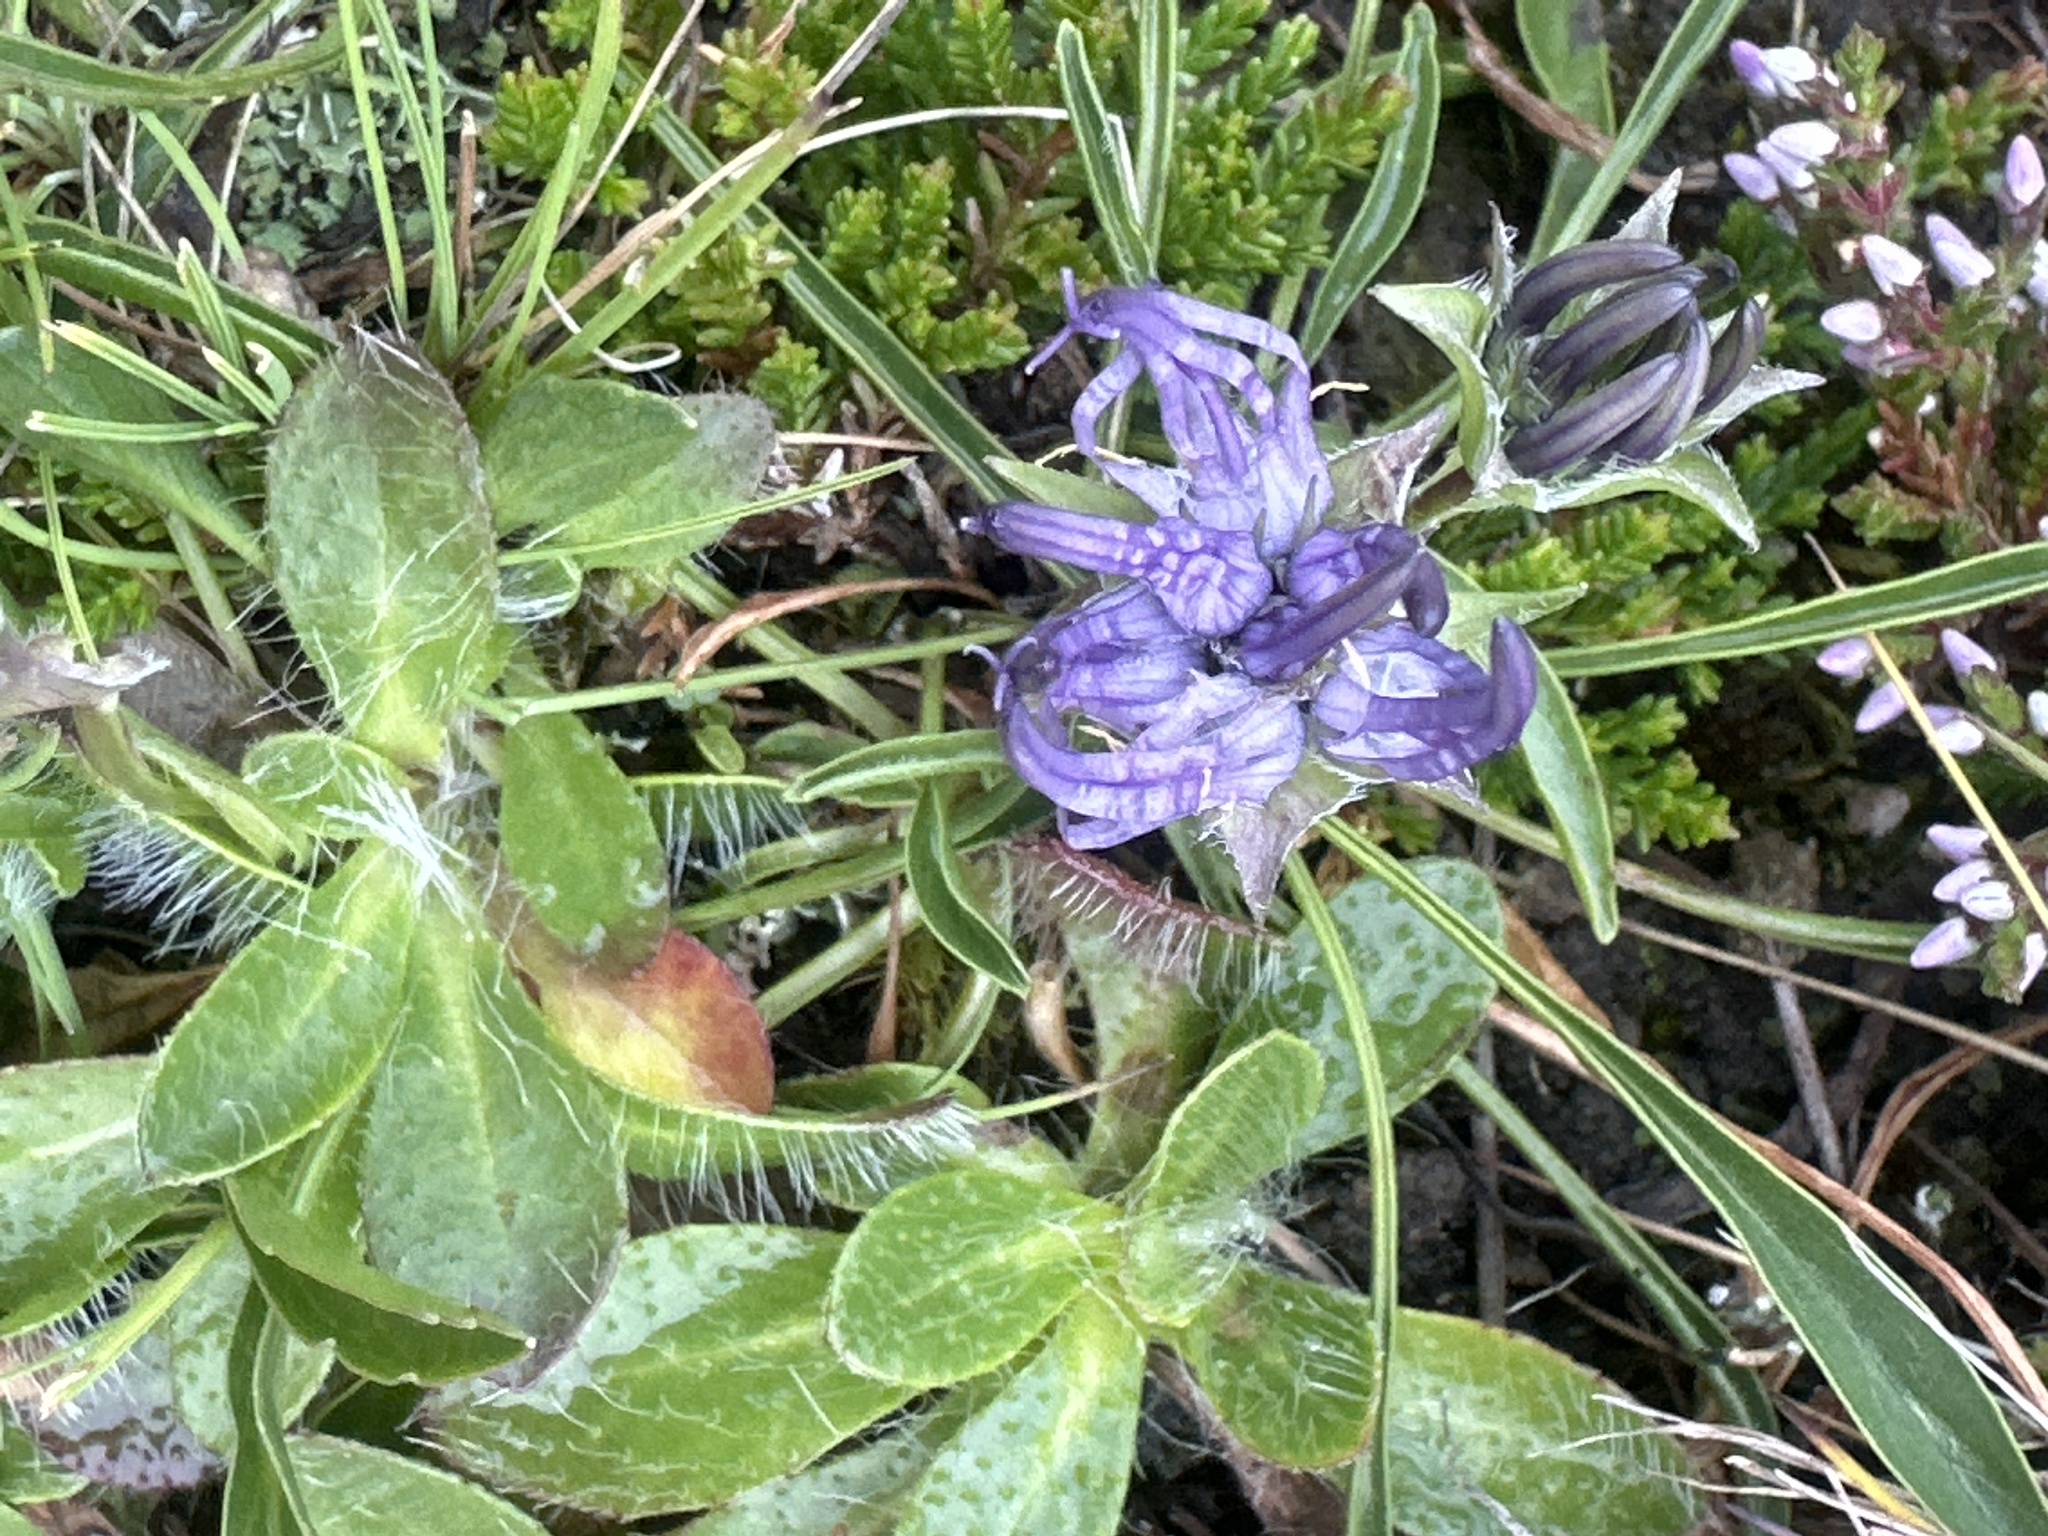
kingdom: Plantae
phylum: Tracheophyta
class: Magnoliopsida
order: Asterales
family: Campanulaceae
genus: Phyteuma
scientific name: Phyteuma confusum
